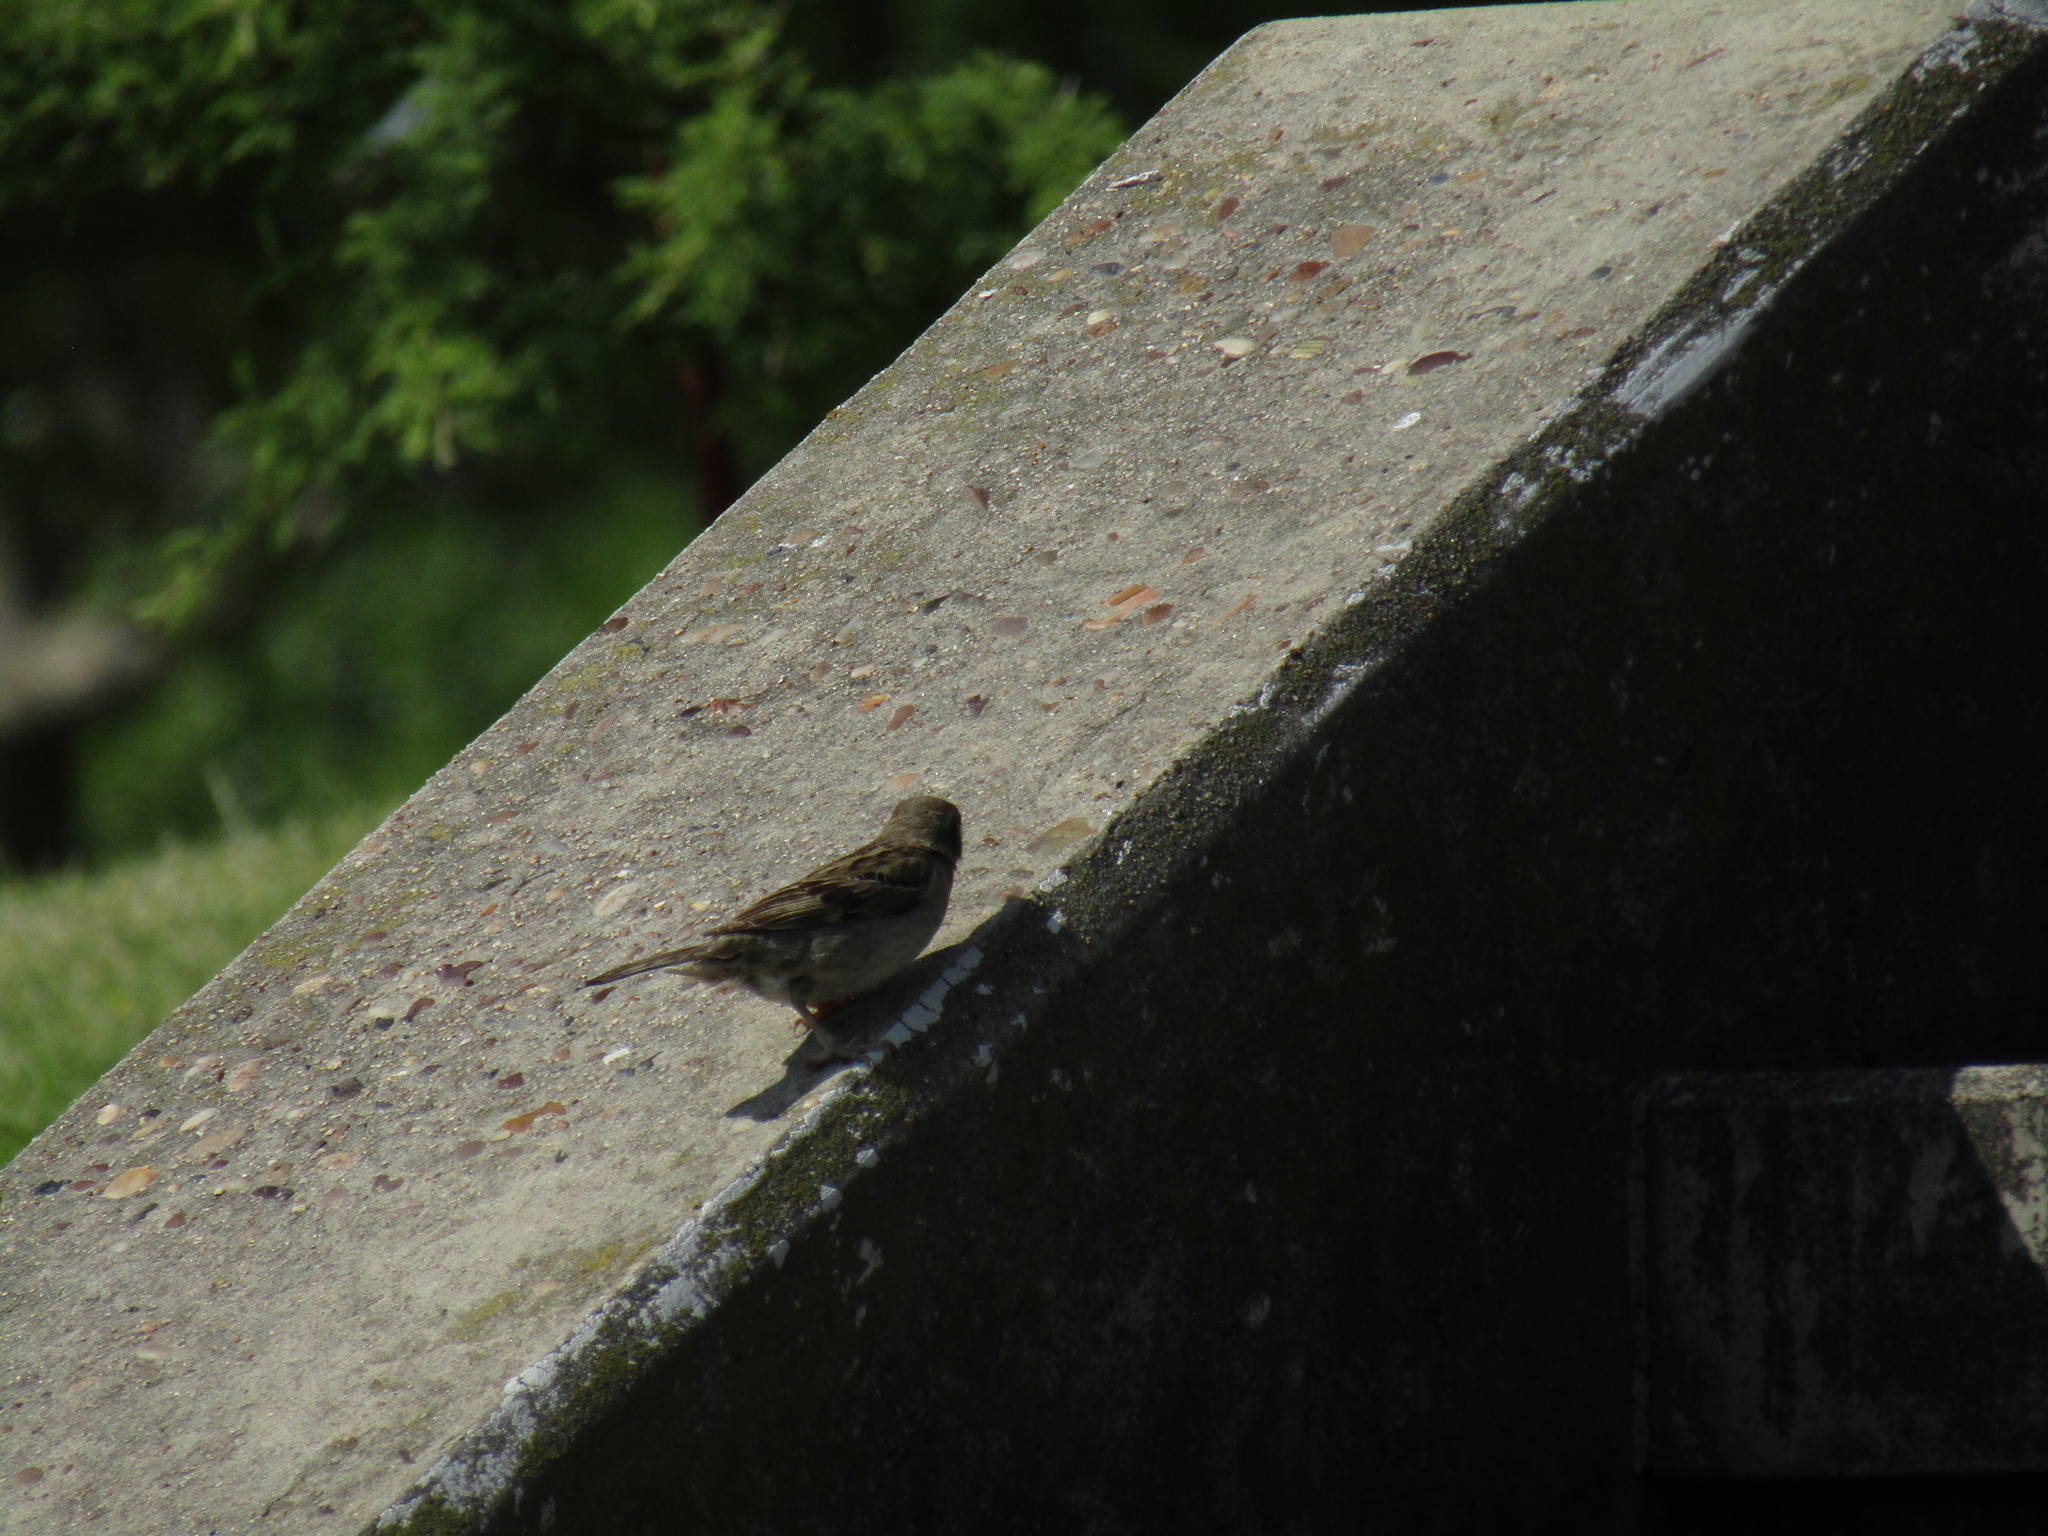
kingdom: Animalia
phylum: Chordata
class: Aves
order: Passeriformes
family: Passeridae
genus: Passer
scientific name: Passer domesticus
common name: House sparrow
